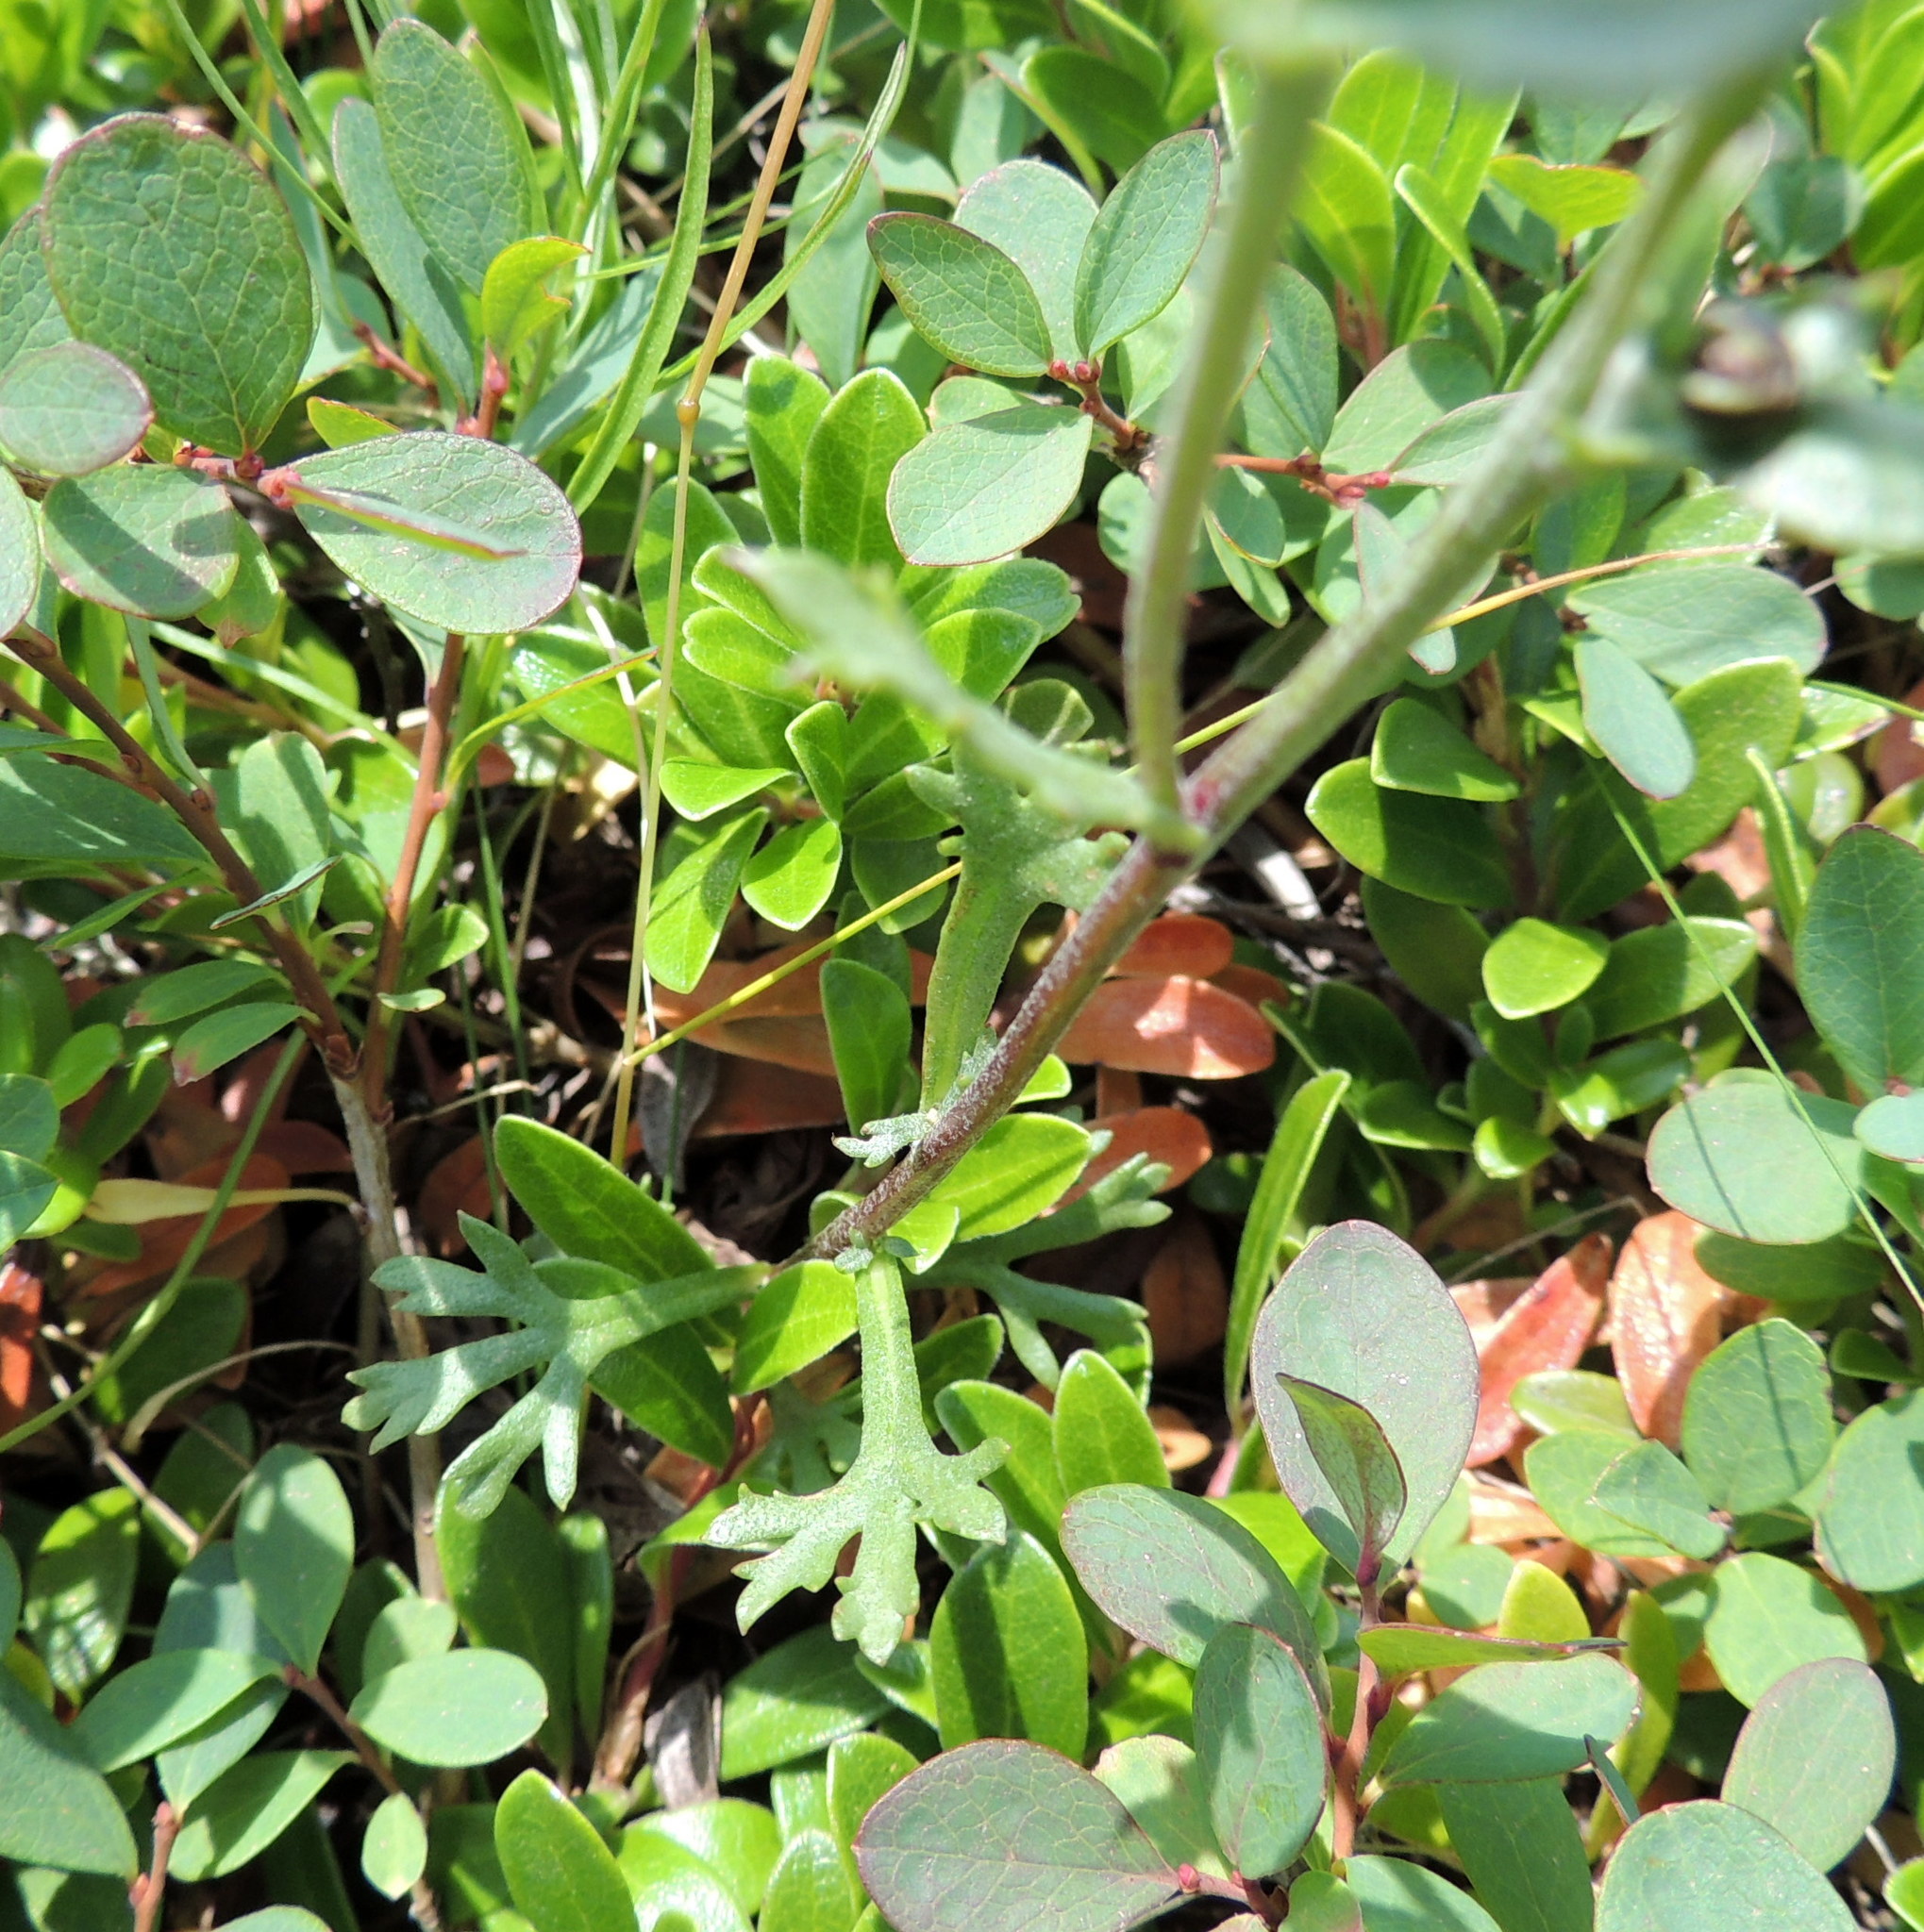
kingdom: Plantae
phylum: Tracheophyta
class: Magnoliopsida
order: Asterales
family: Asteraceae
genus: Chrysanthemum
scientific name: Chrysanthemum zawadzkii
